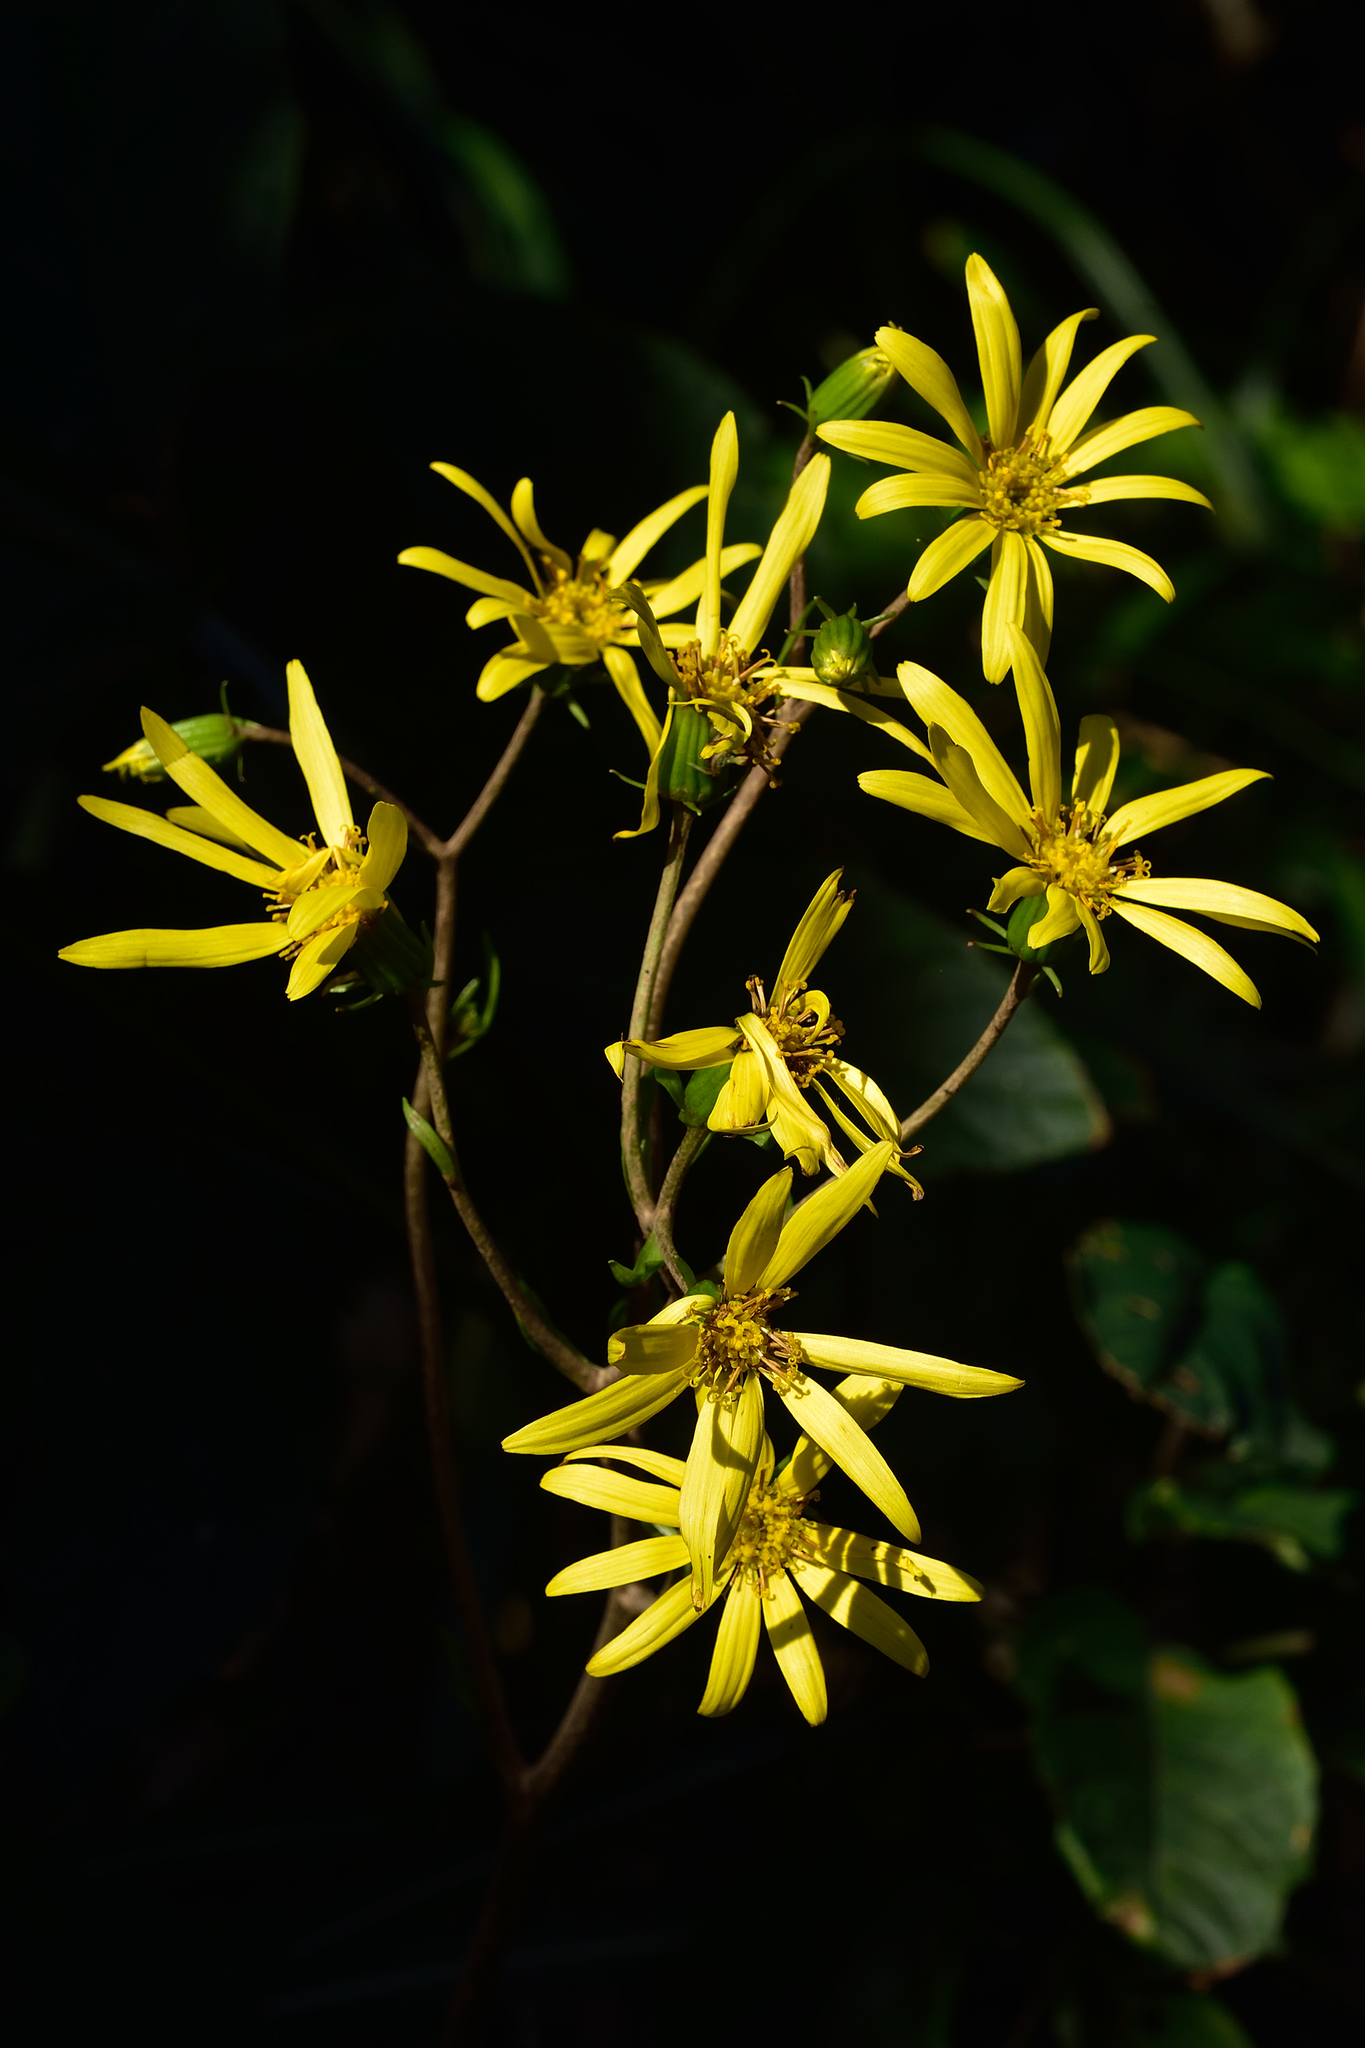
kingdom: Plantae
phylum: Tracheophyta
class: Magnoliopsida
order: Asterales
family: Asteraceae
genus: Farfugium
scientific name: Farfugium japonicum
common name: Leopardplant
